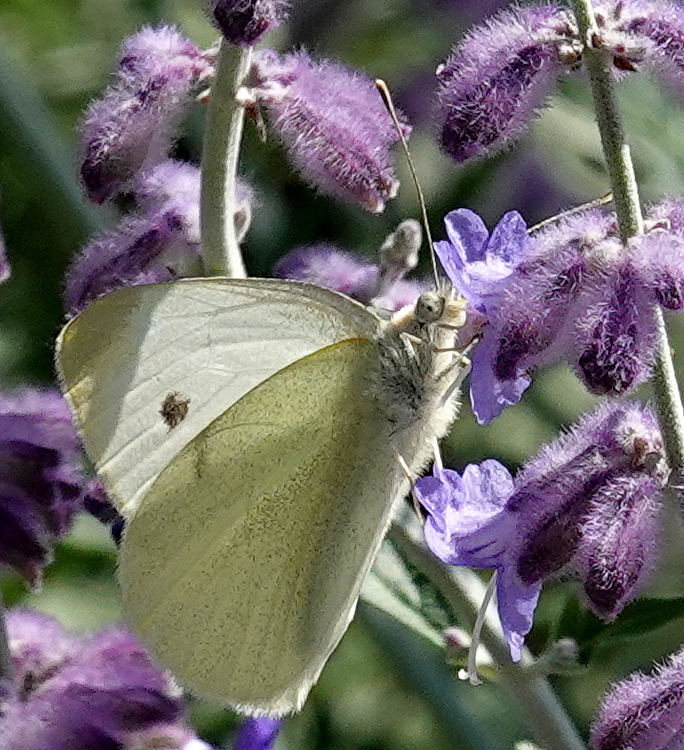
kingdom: Animalia
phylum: Arthropoda
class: Insecta
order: Lepidoptera
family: Pieridae
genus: Pieris
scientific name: Pieris rapae
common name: Small white
